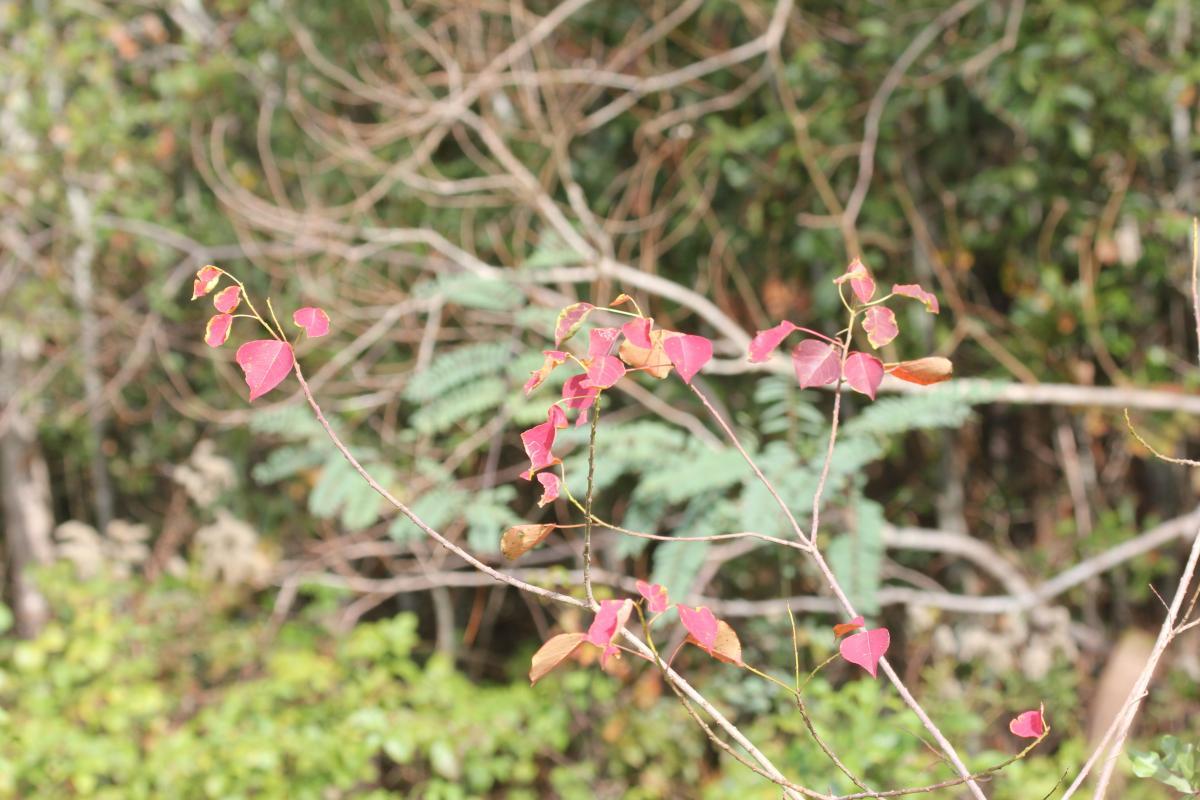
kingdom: Plantae
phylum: Tracheophyta
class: Magnoliopsida
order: Malpighiales
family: Euphorbiaceae
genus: Triadica
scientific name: Triadica sebifera
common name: Chinese tallow
